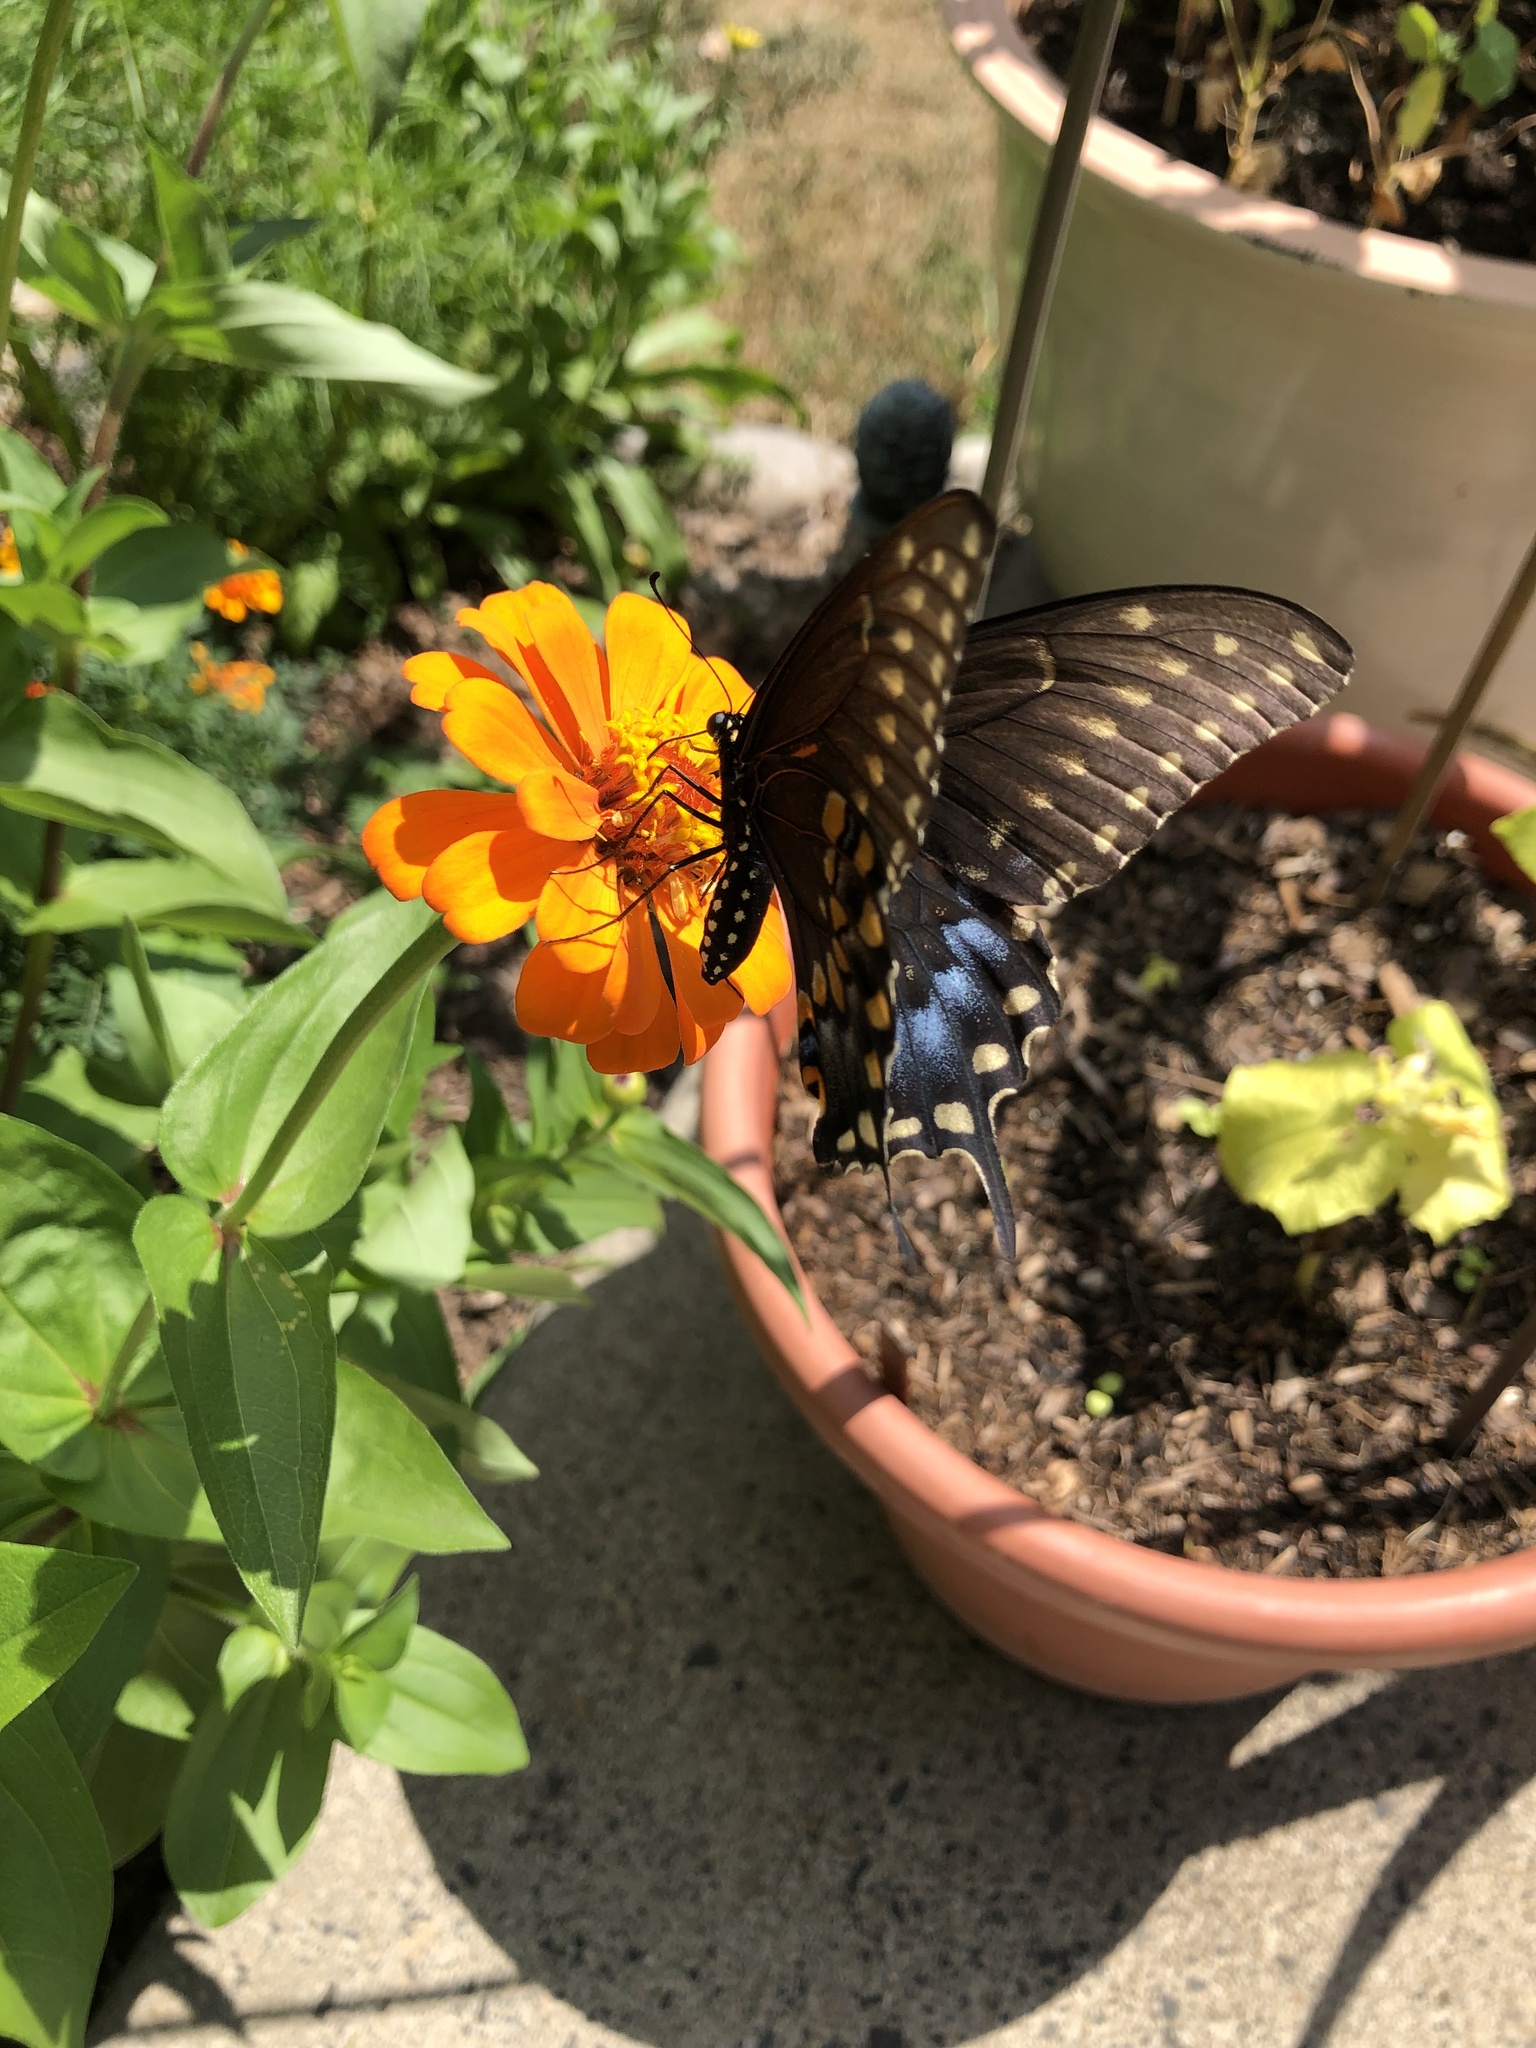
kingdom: Animalia
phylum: Arthropoda
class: Insecta
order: Lepidoptera
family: Papilionidae
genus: Papilio
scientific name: Papilio polyxenes
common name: Black swallowtail
